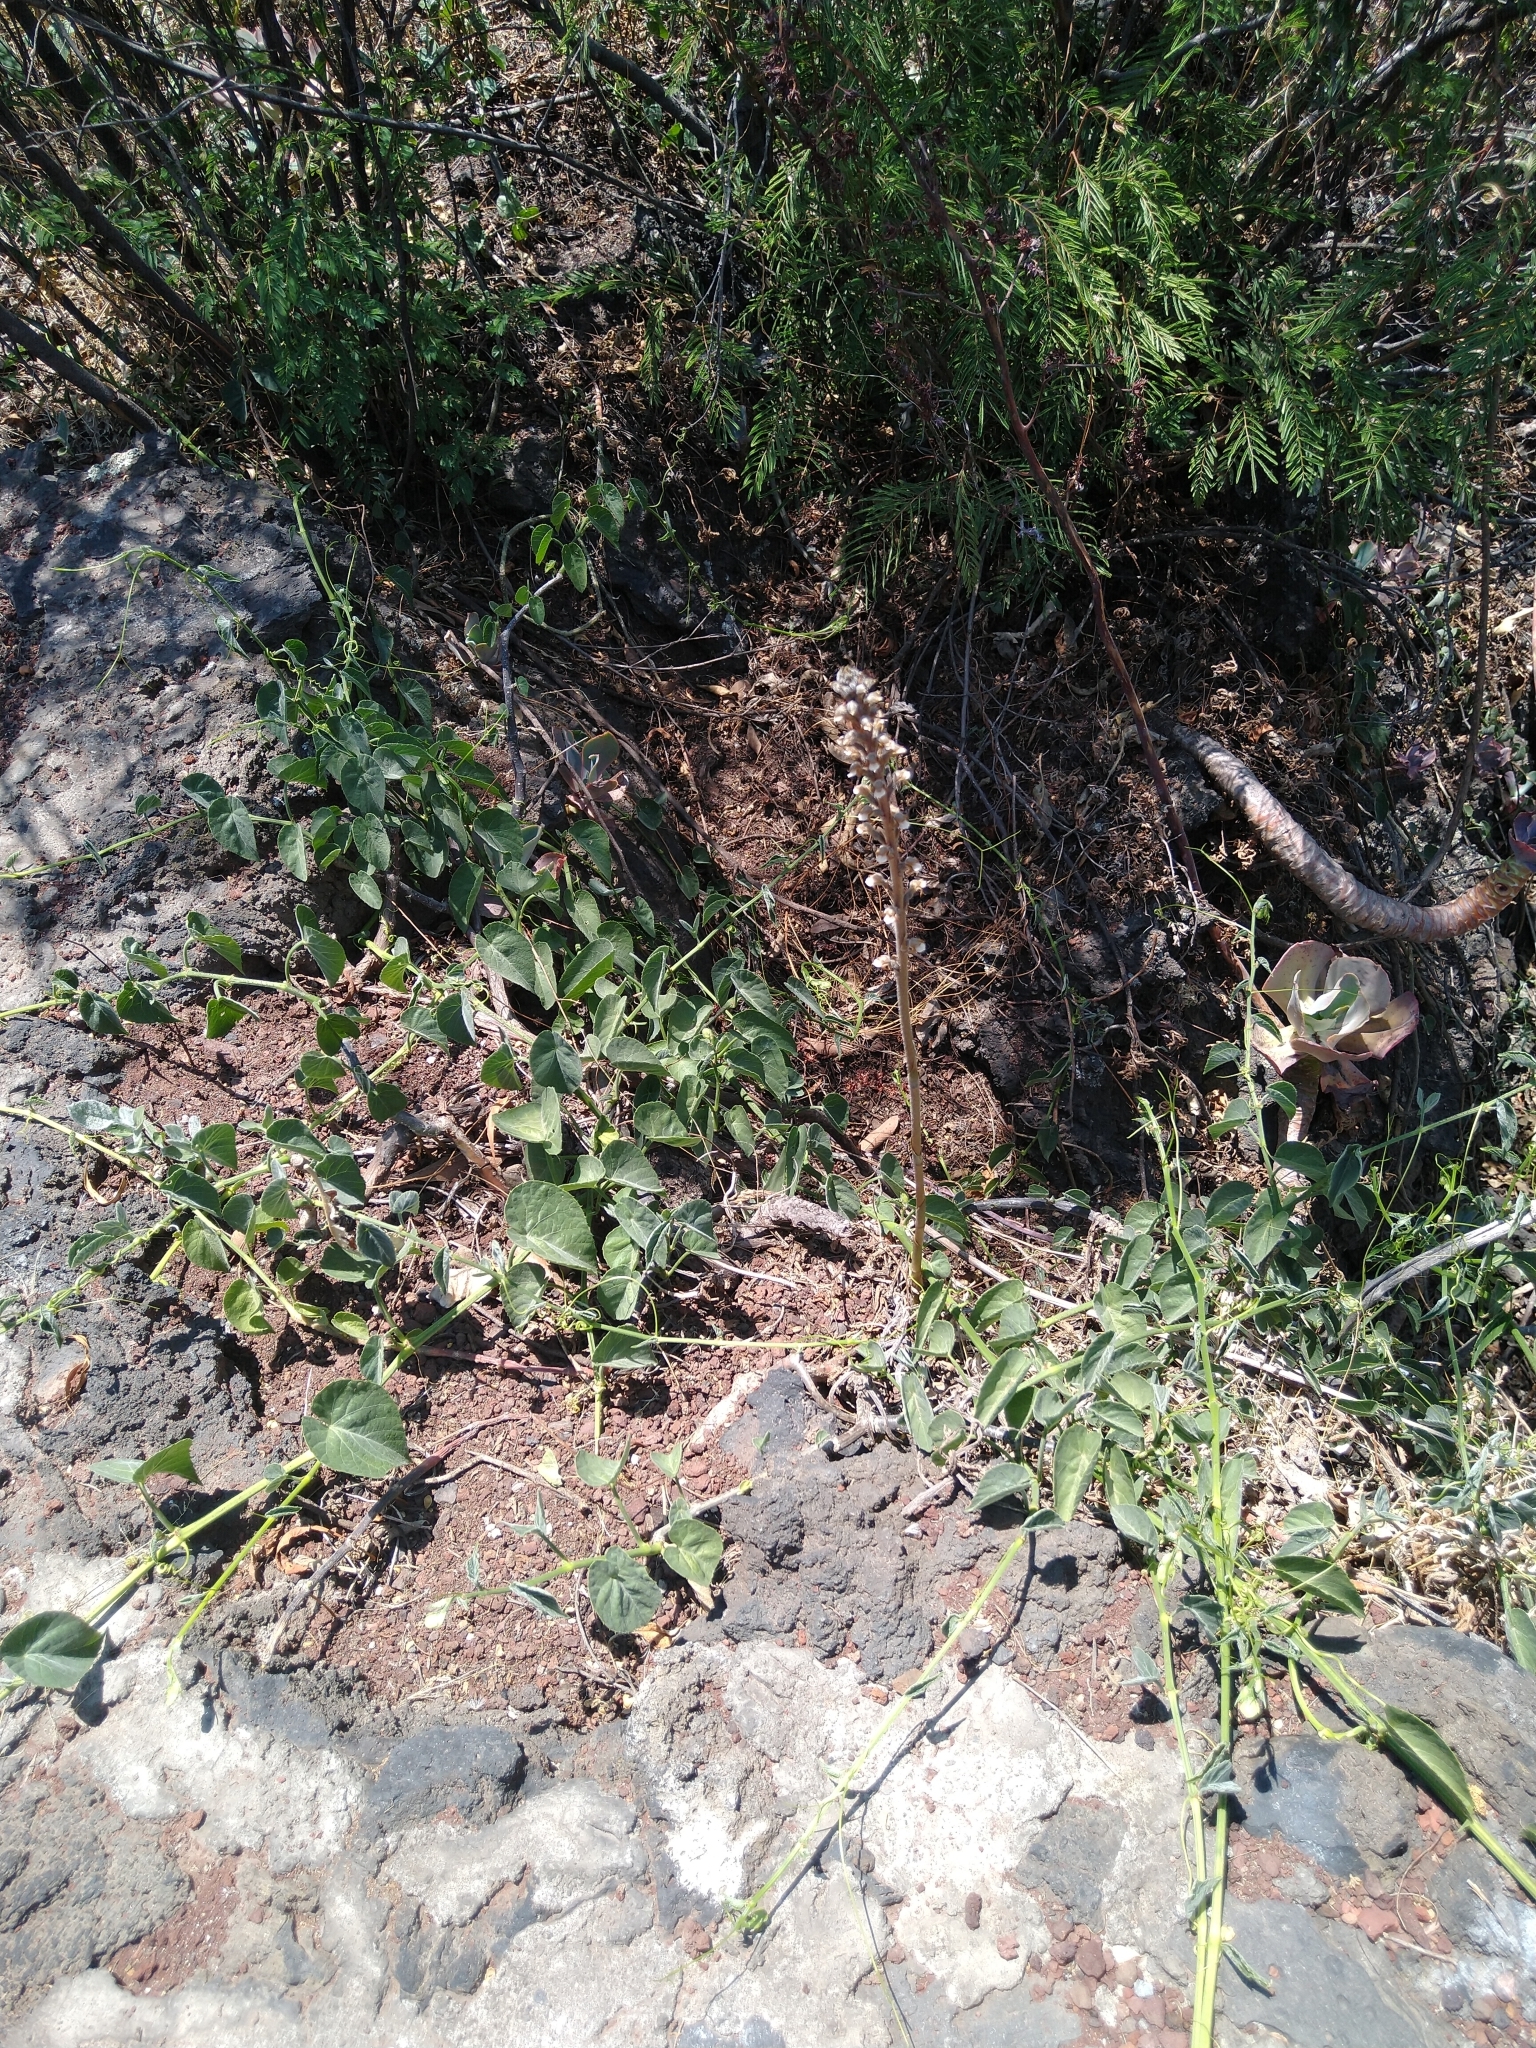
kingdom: Plantae
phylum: Tracheophyta
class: Liliopsida
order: Asparagales
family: Orchidaceae
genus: Sarcoglottis
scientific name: Sarcoglottis schaffneri
